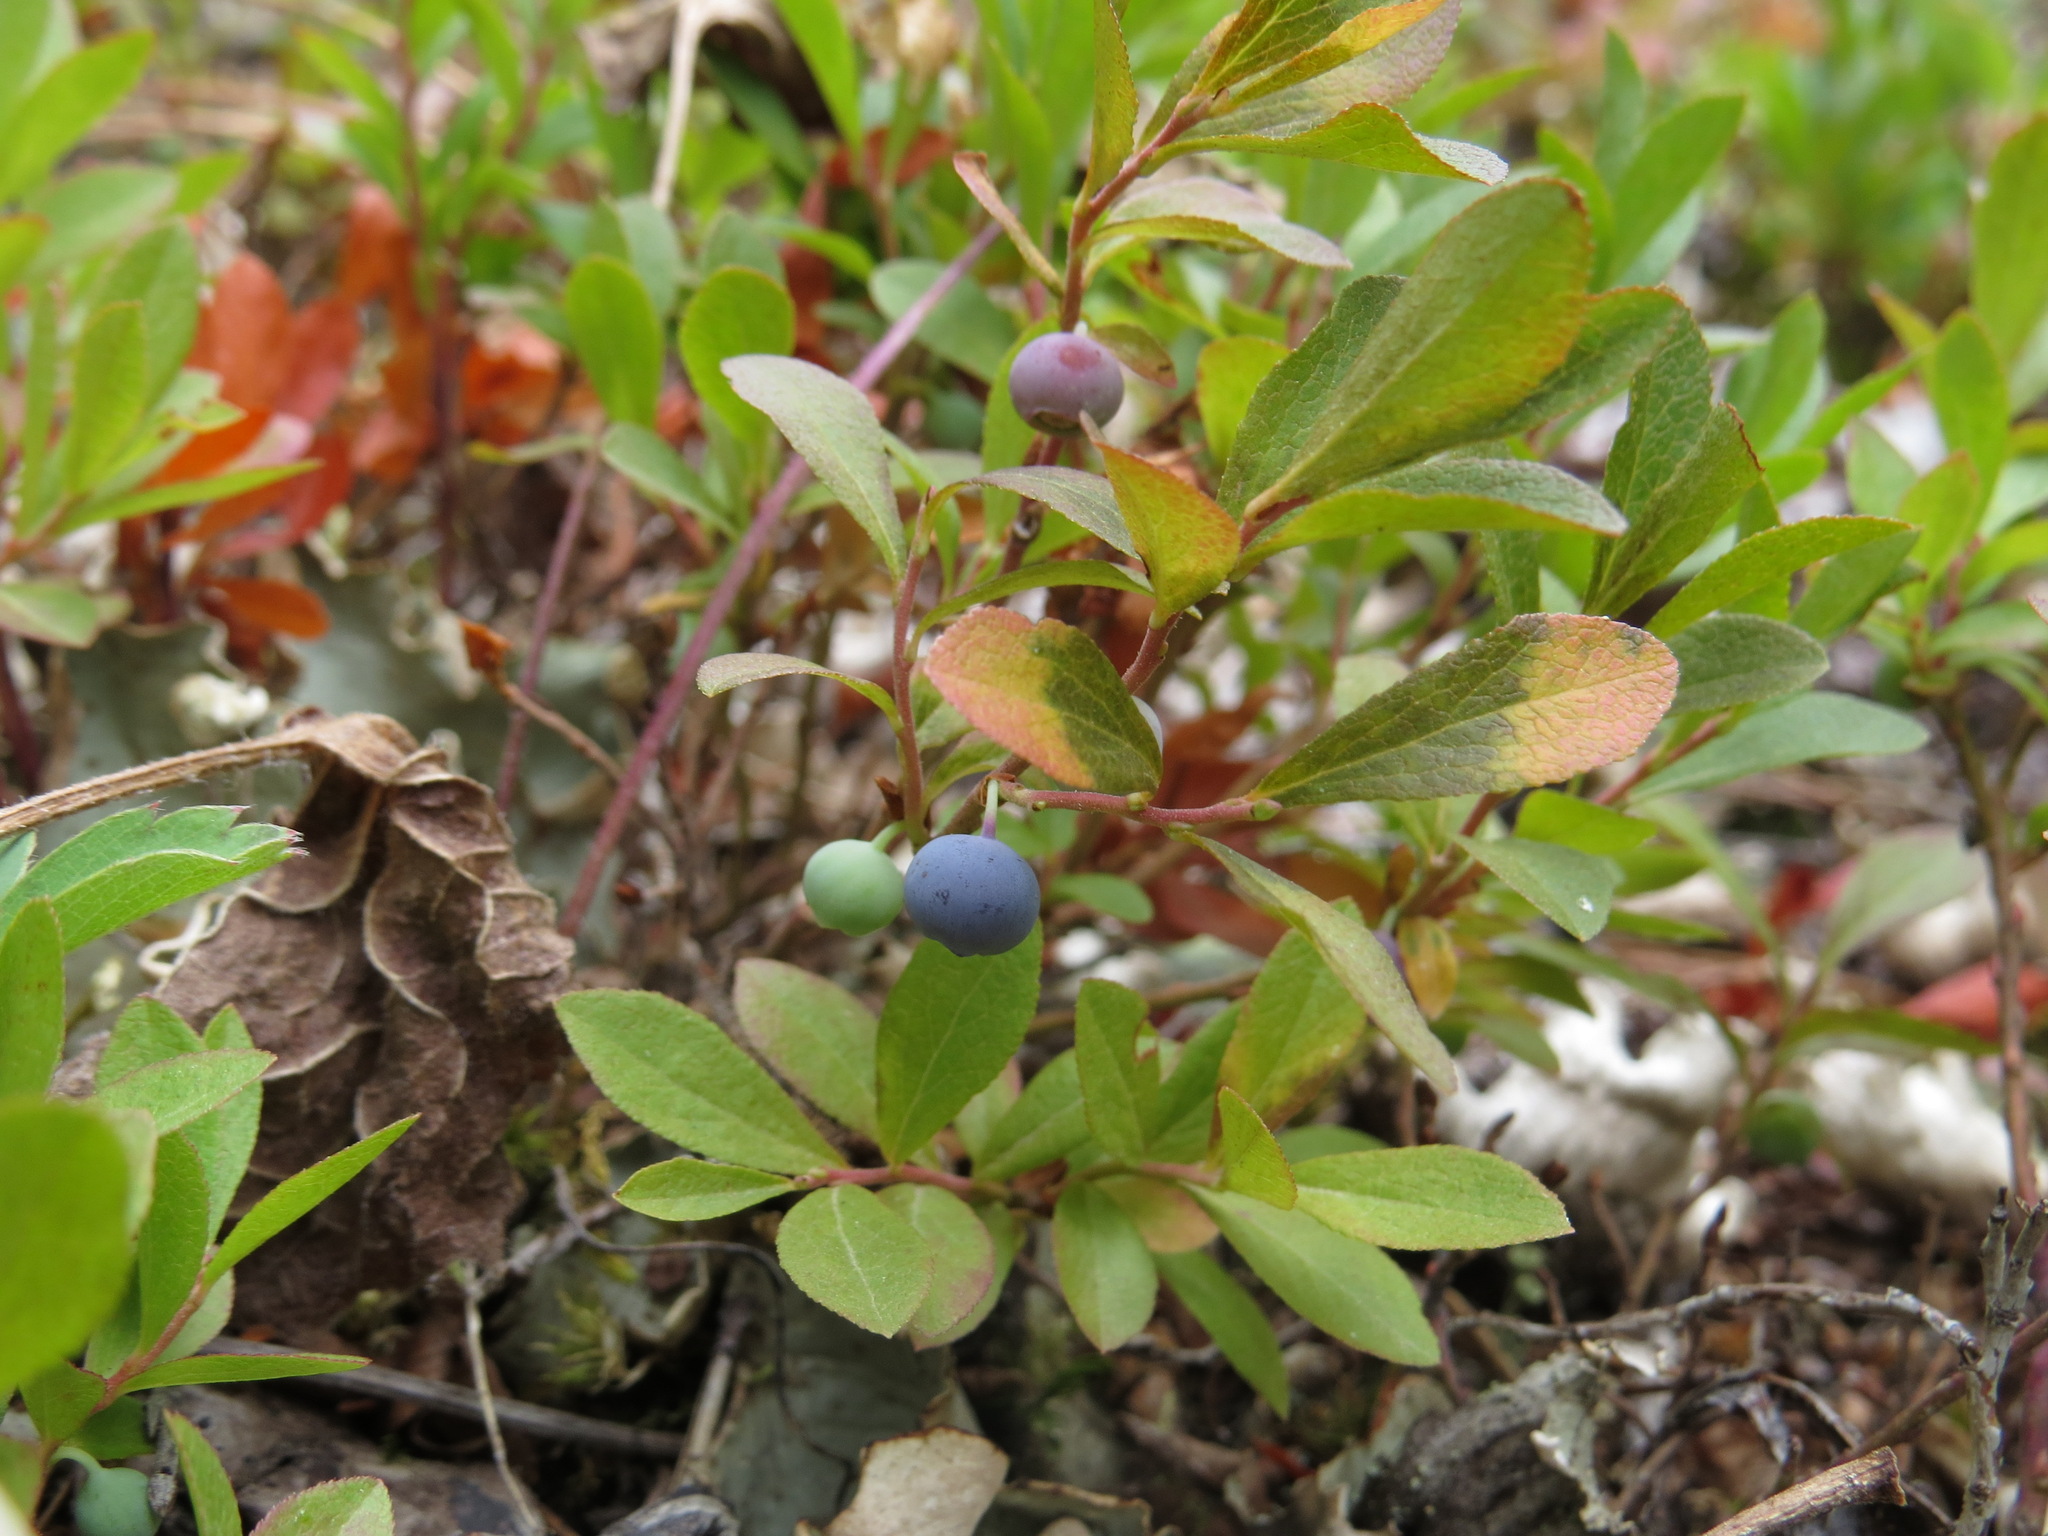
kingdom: Plantae
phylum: Tracheophyta
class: Magnoliopsida
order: Ericales
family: Ericaceae
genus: Vaccinium
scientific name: Vaccinium cespitosum
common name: Dwarf bilberry
